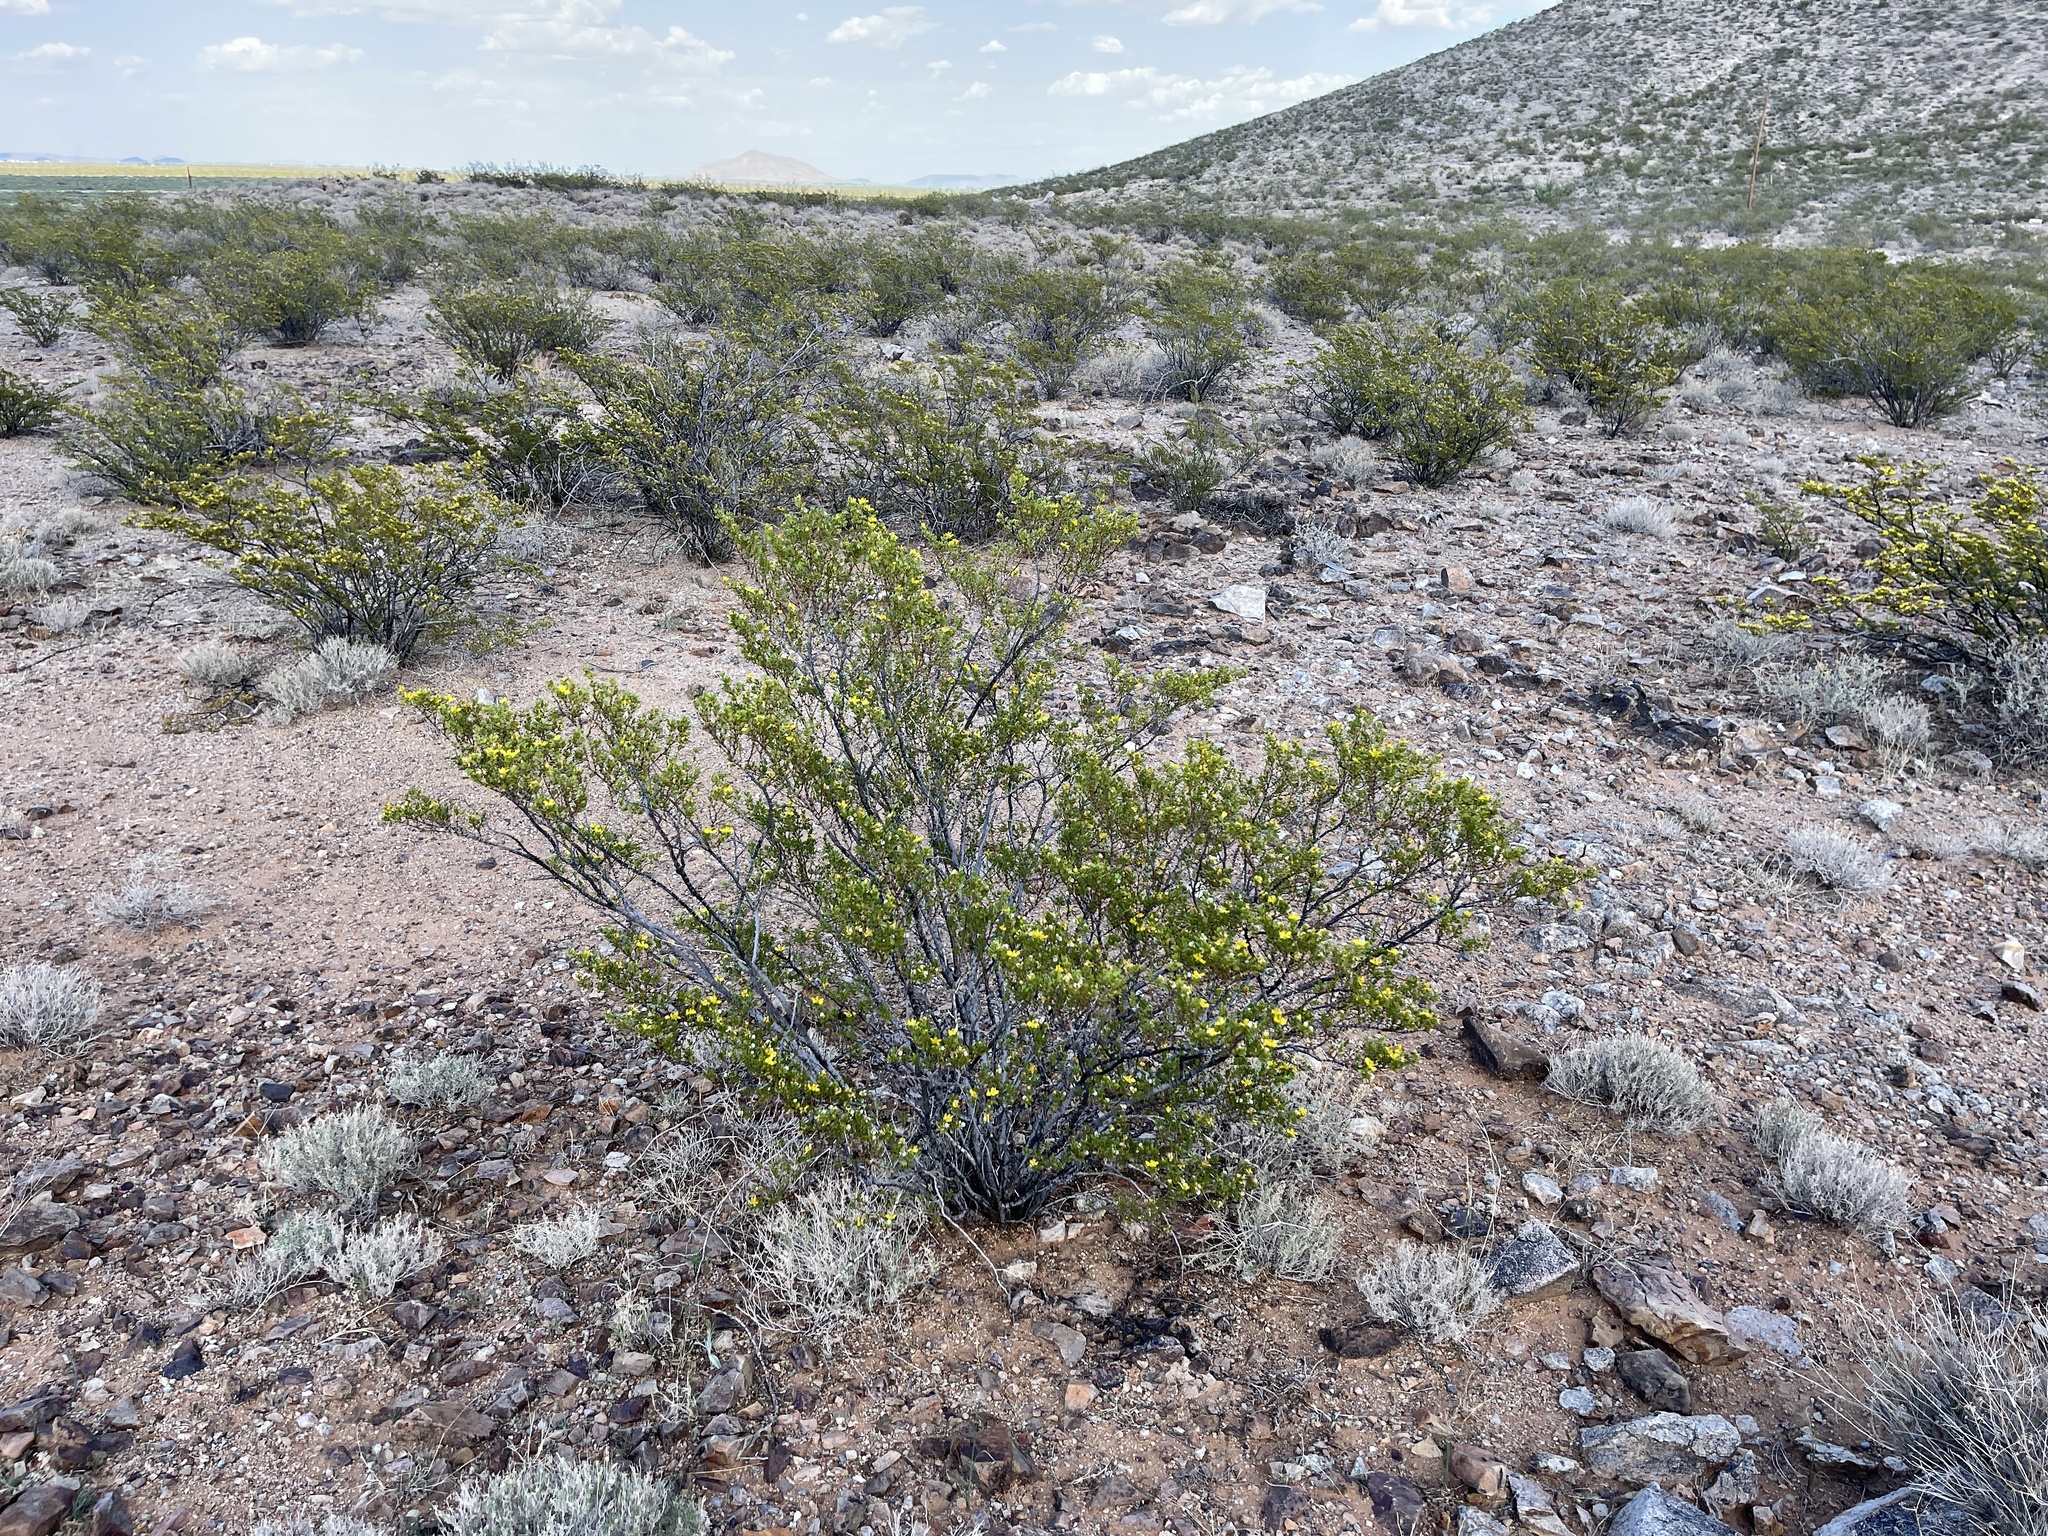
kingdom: Plantae
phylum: Tracheophyta
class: Magnoliopsida
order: Zygophyllales
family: Zygophyllaceae
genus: Larrea
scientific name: Larrea tridentata
